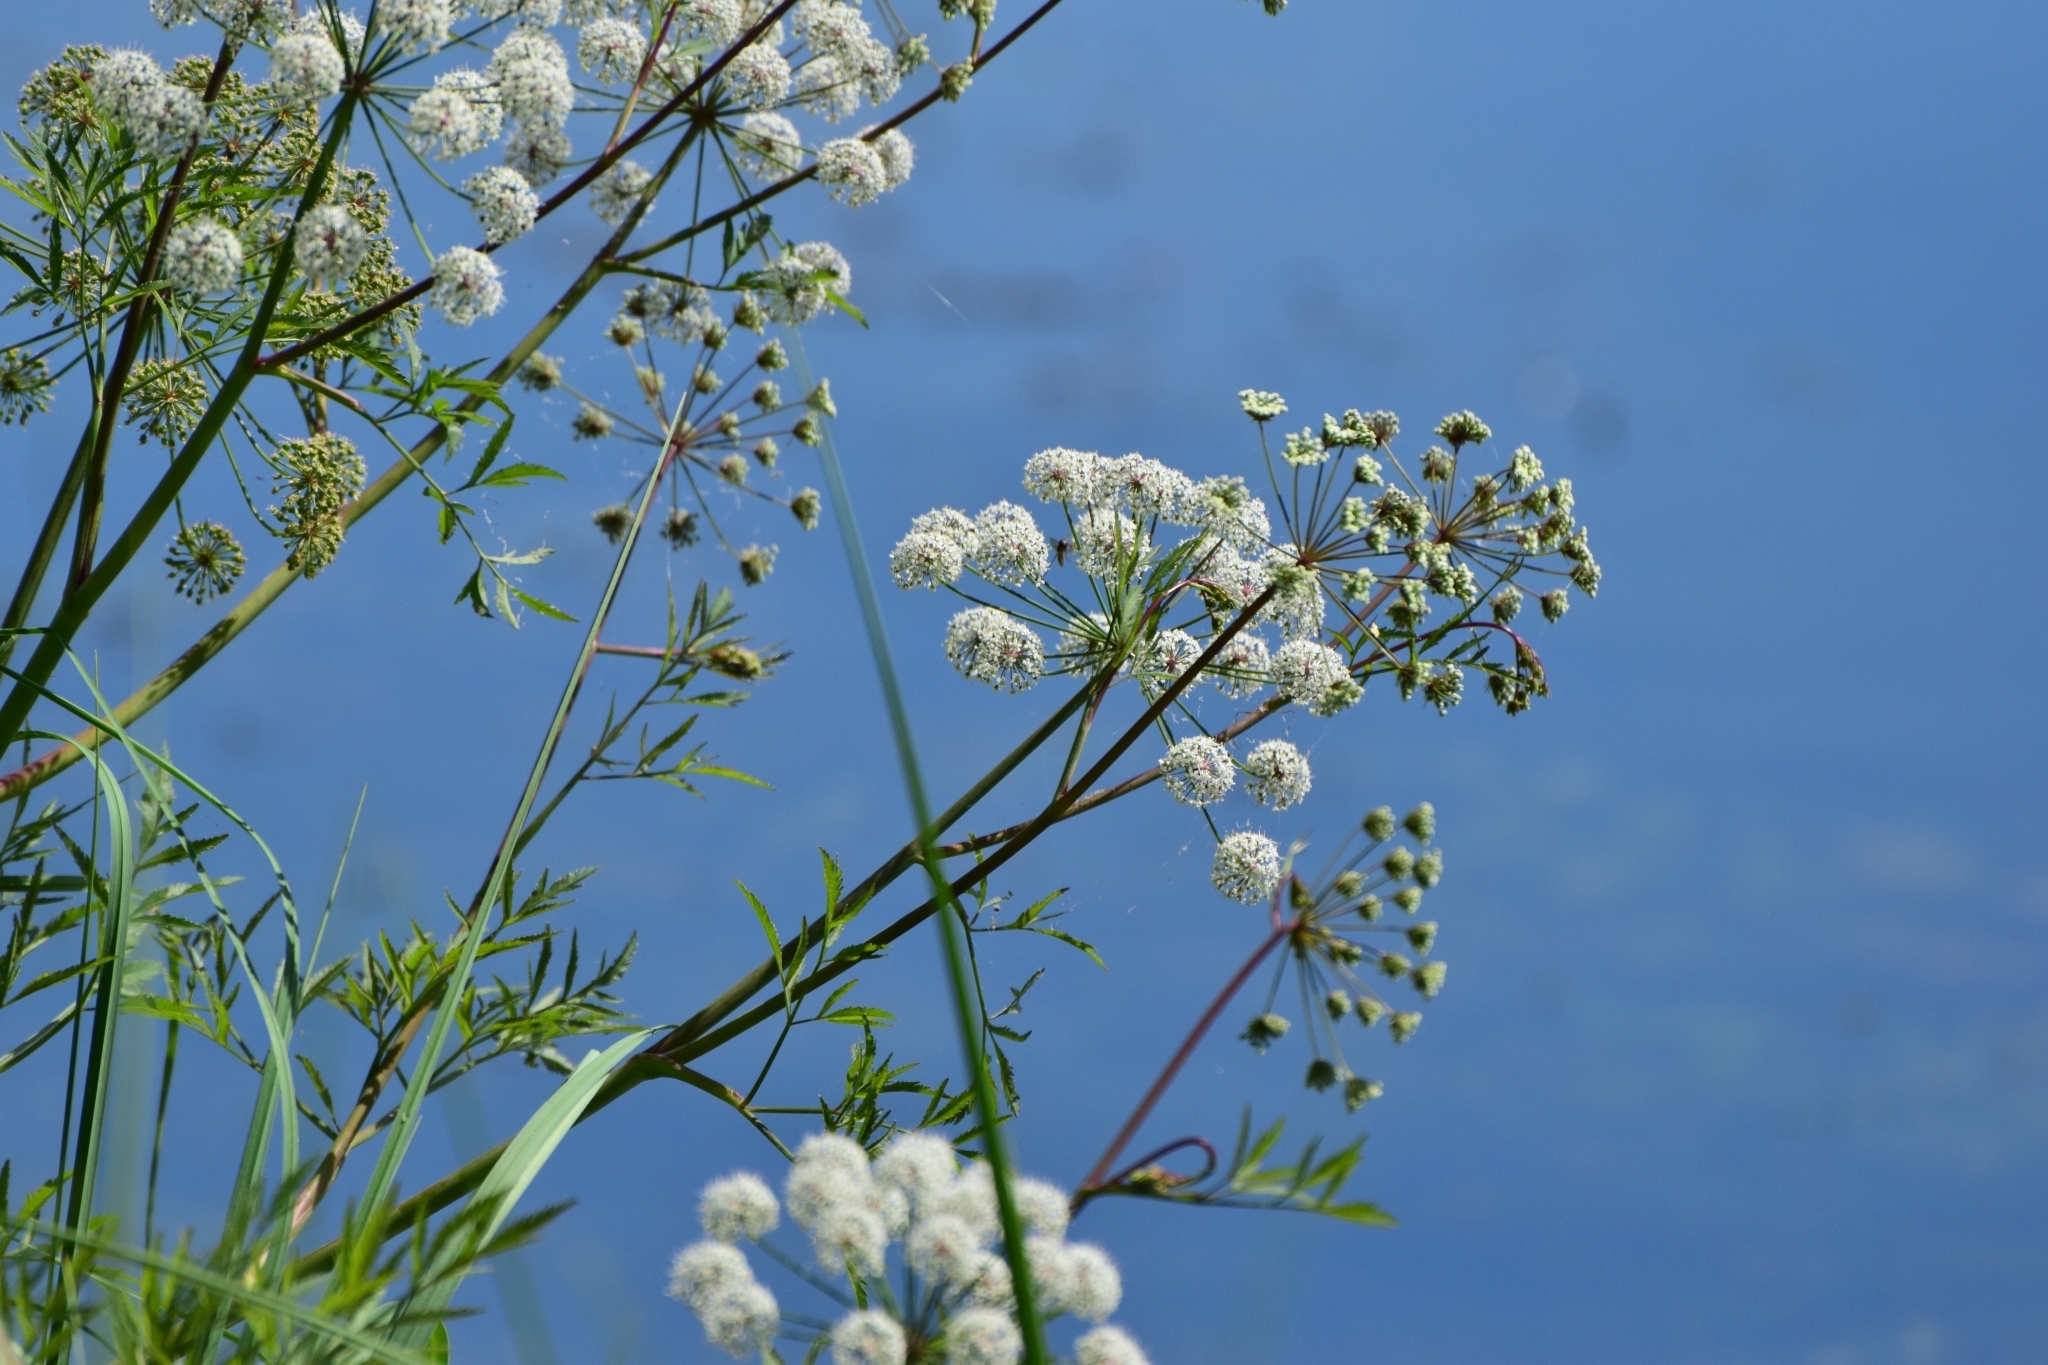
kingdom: Plantae
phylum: Tracheophyta
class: Magnoliopsida
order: Apiales
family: Apiaceae
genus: Cicuta
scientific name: Cicuta virosa
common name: Cowbane
